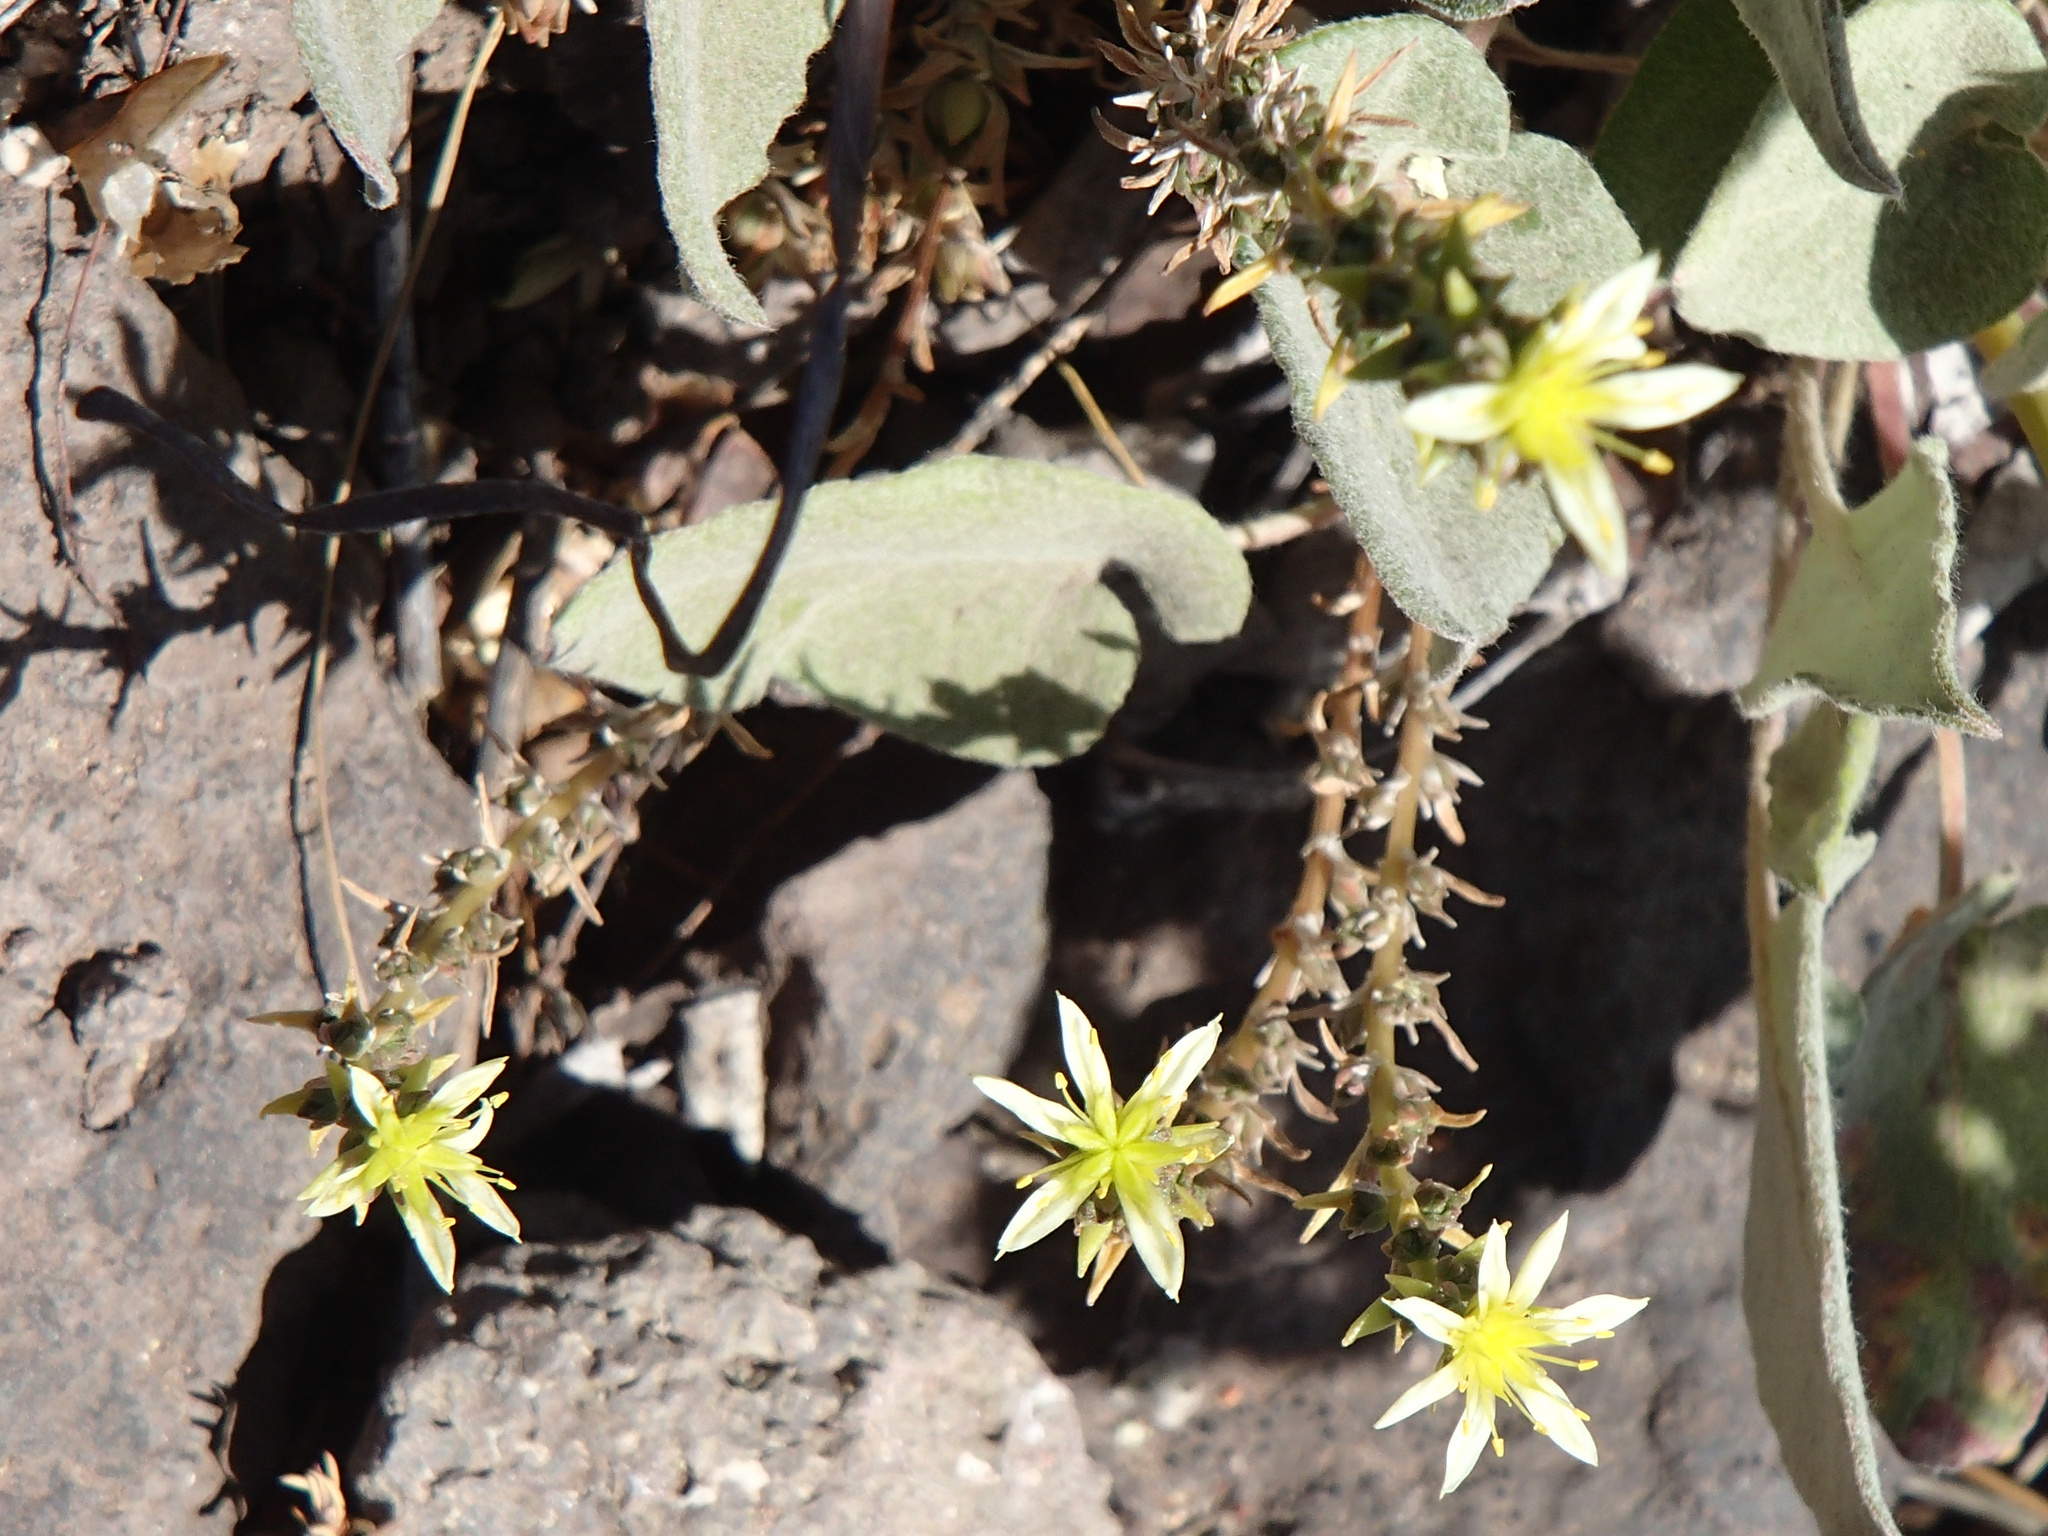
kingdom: Plantae
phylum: Tracheophyta
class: Magnoliopsida
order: Saxifragales
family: Crassulaceae
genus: Sedum
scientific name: Sedum stenopetalum
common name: Narrow-petaled stonecrop
